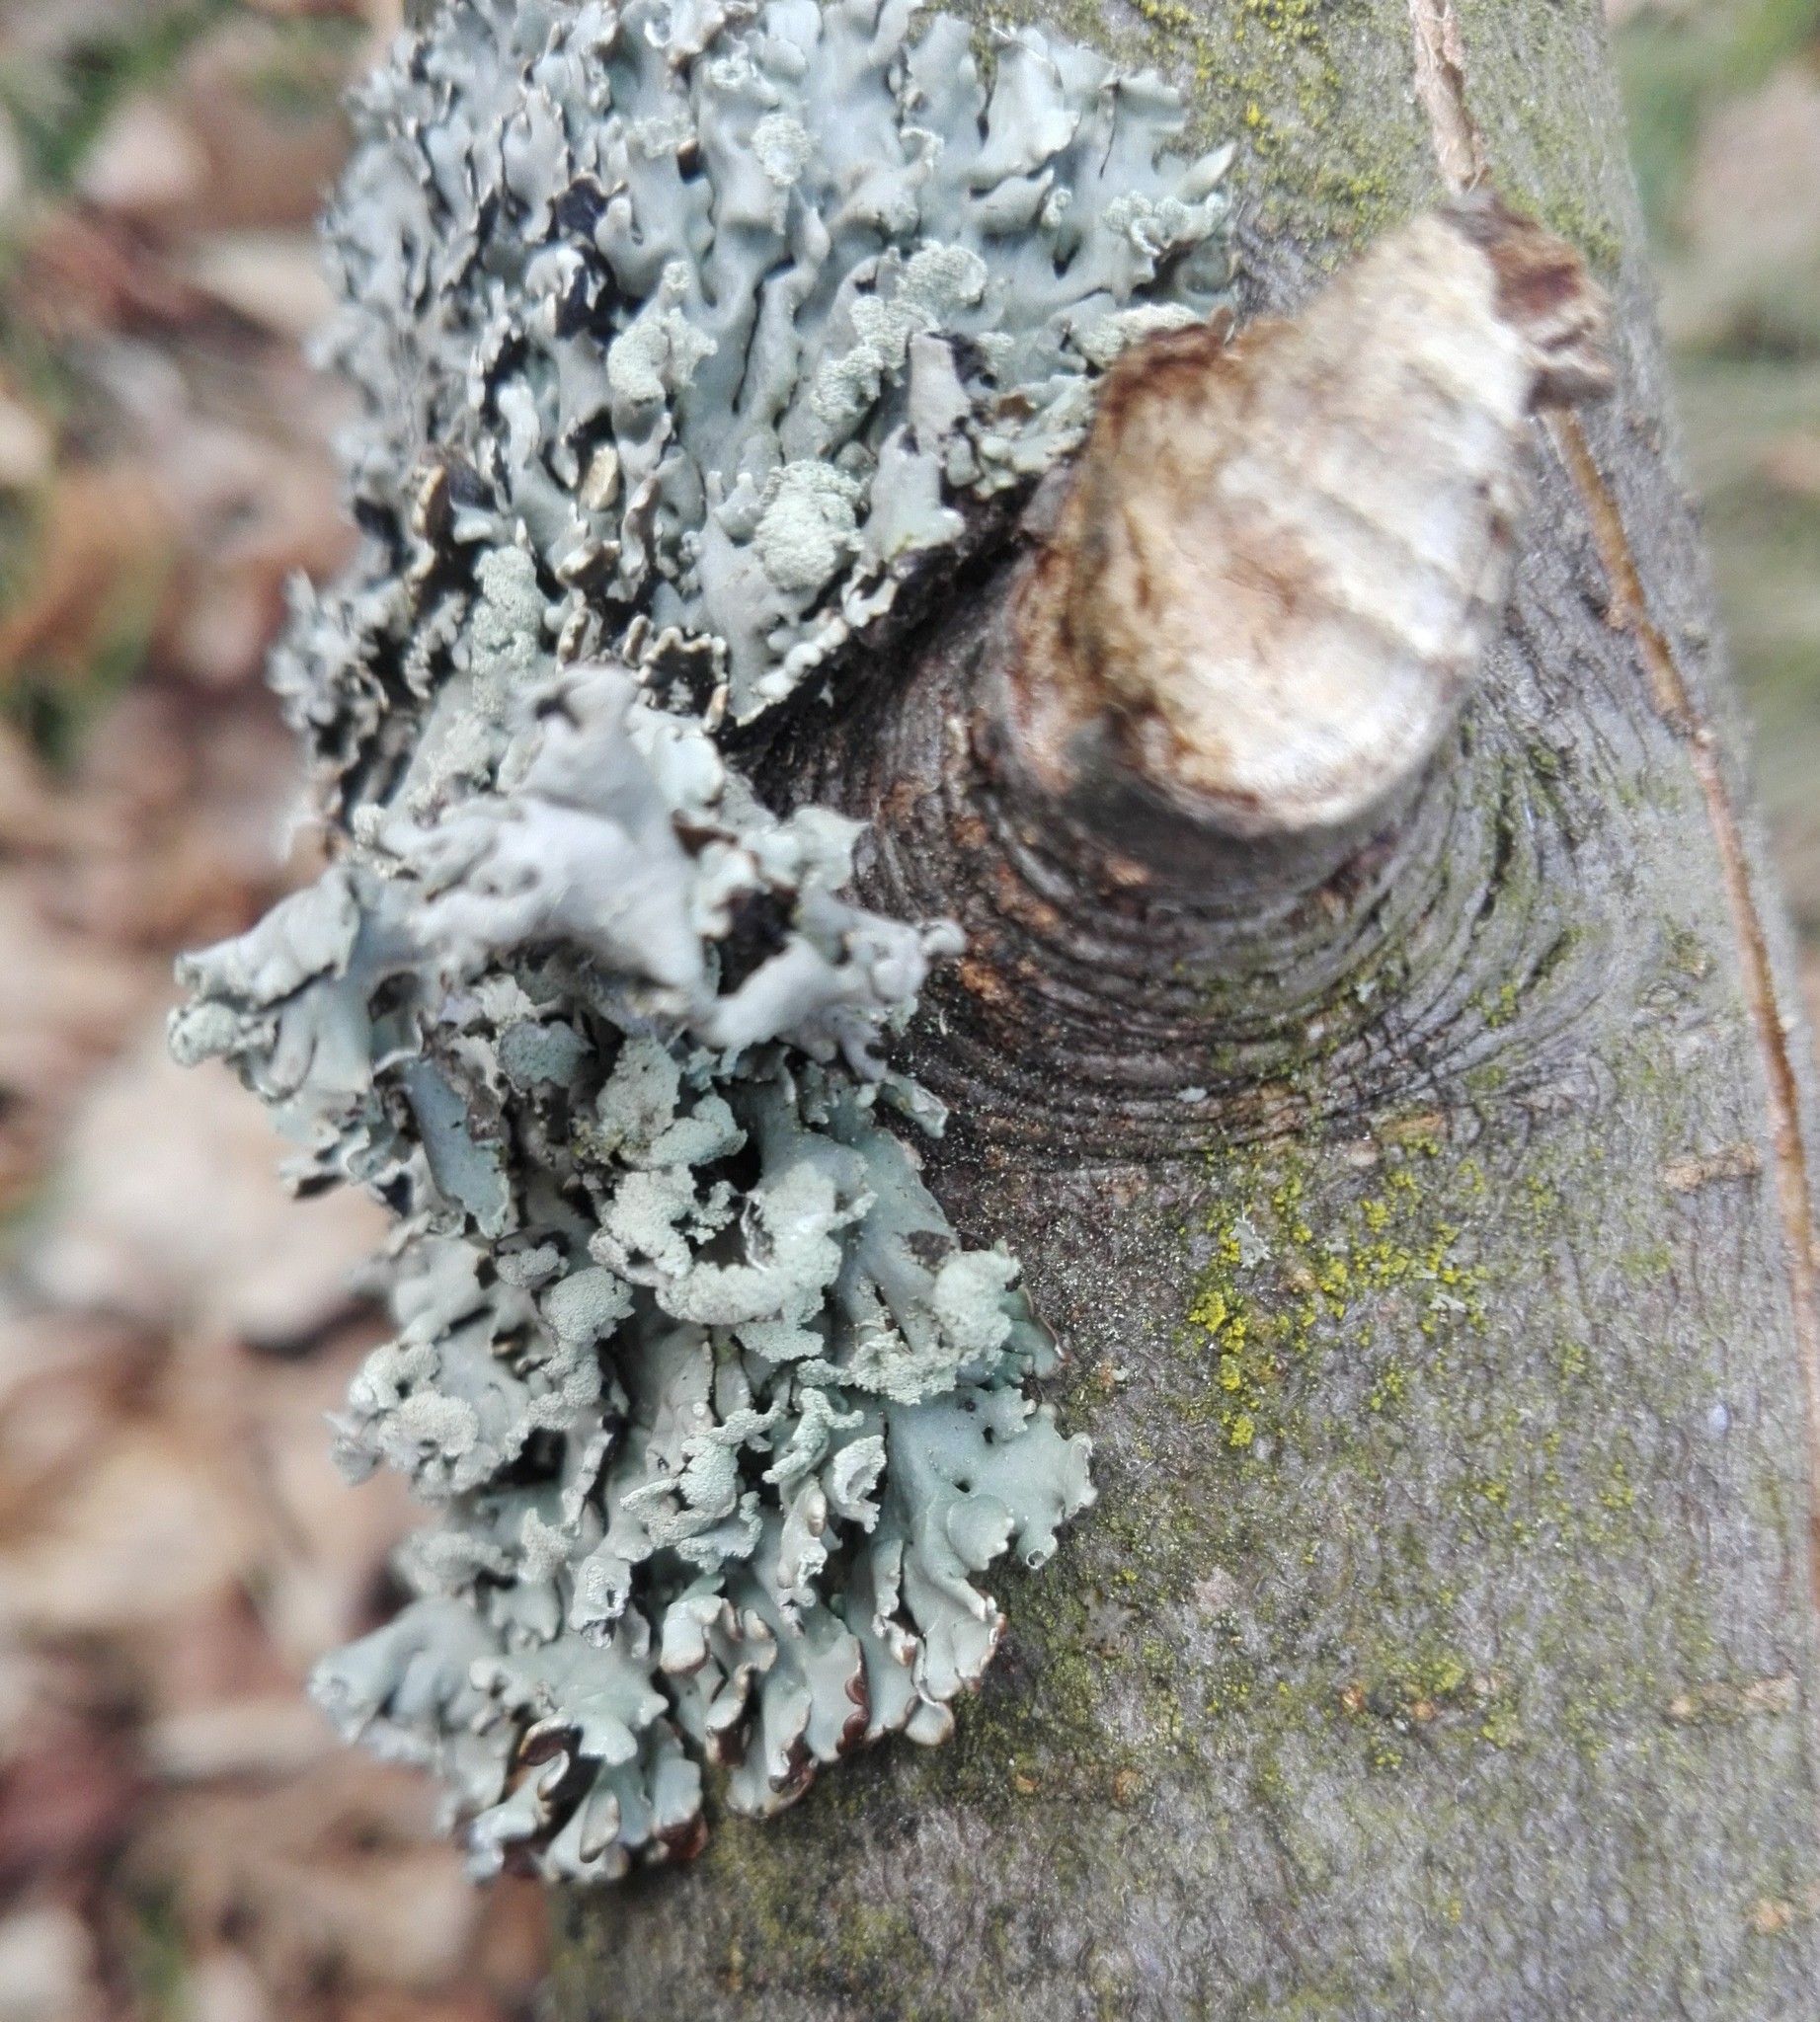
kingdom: Fungi
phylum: Ascomycota
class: Lecanoromycetes
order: Lecanorales
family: Parmeliaceae
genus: Hypogymnia
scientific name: Hypogymnia physodes
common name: Dark crottle
